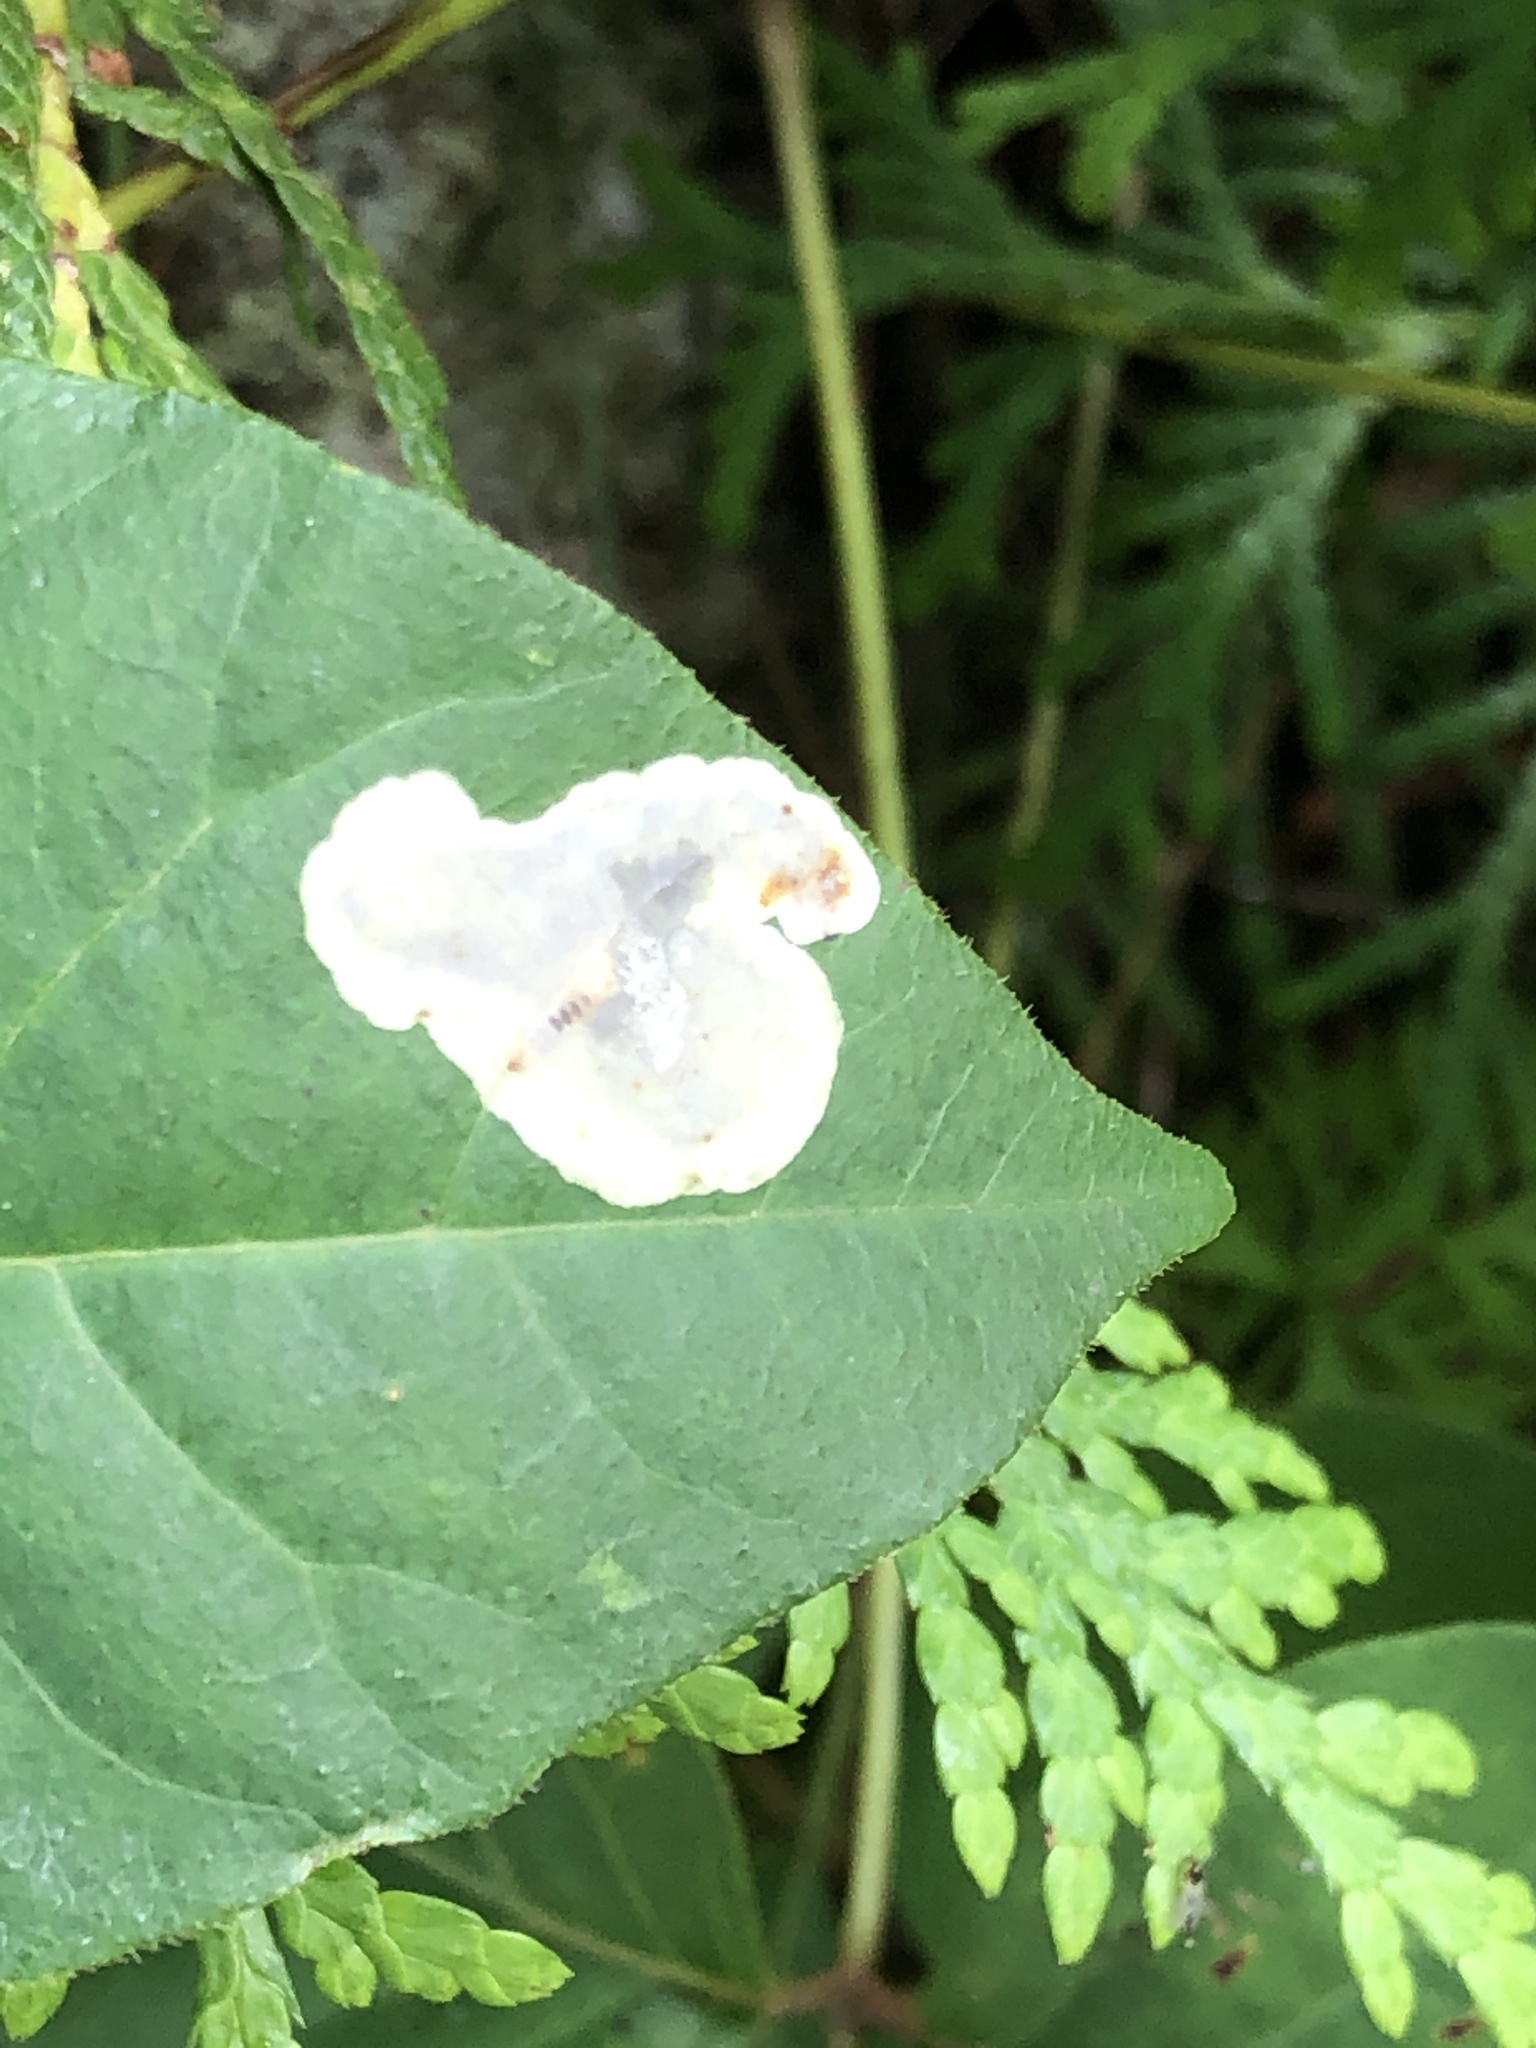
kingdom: Animalia
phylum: Arthropoda
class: Insecta
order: Lepidoptera
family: Gracillariidae
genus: Cameraria
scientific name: Cameraria guttifinitella
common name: Poison ivy leaf-miner moth
